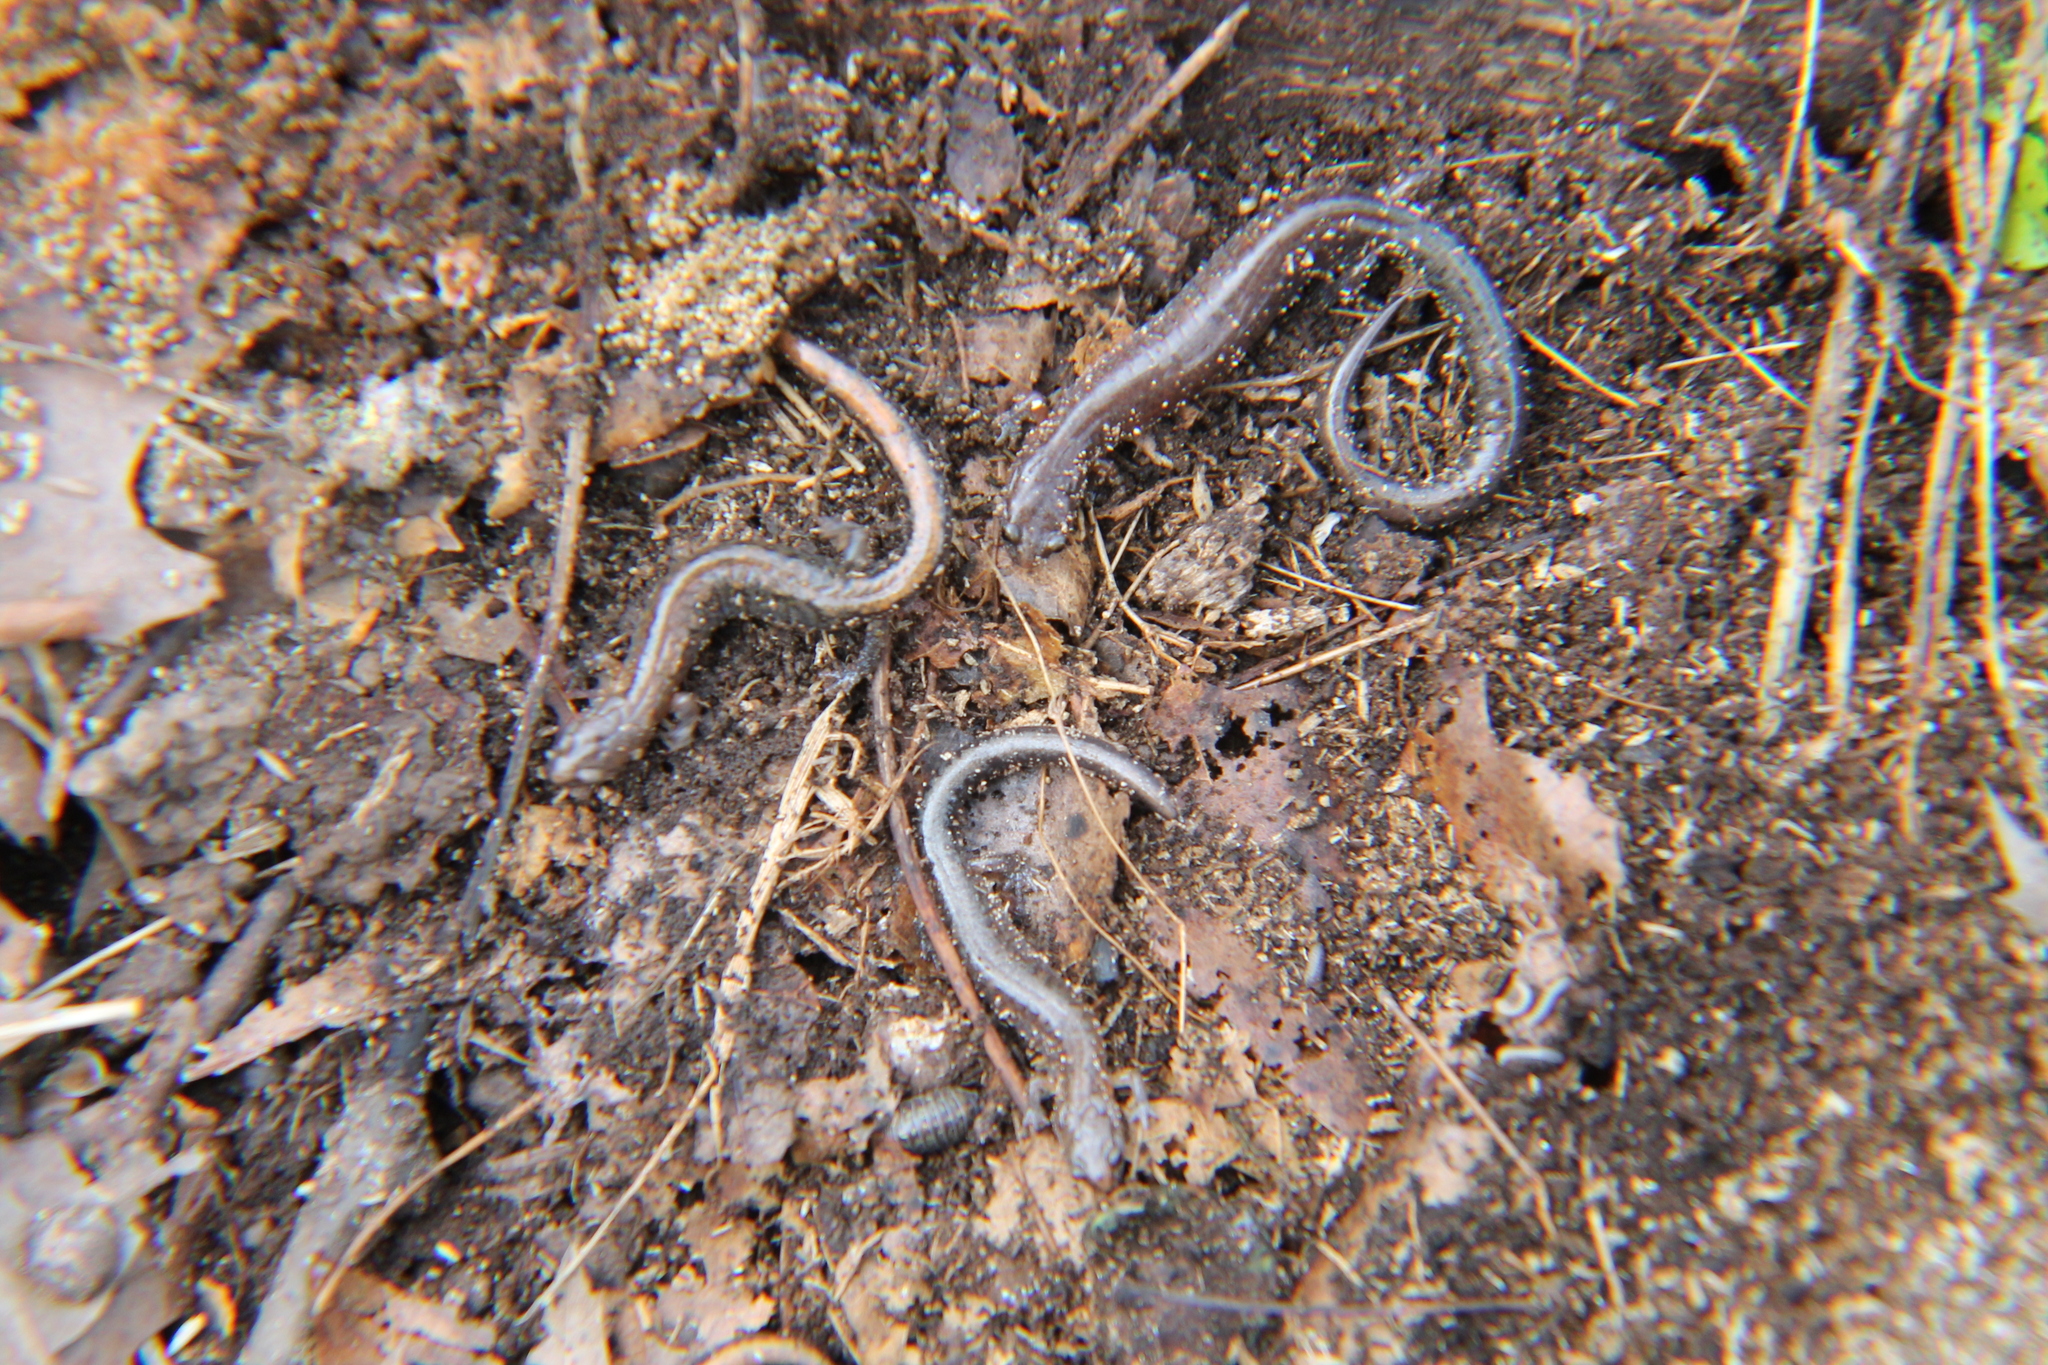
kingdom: Animalia
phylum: Chordata
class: Amphibia
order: Caudata
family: Plethodontidae
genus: Plethodon
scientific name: Plethodon dorsalis
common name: Northern zigzag salamander
